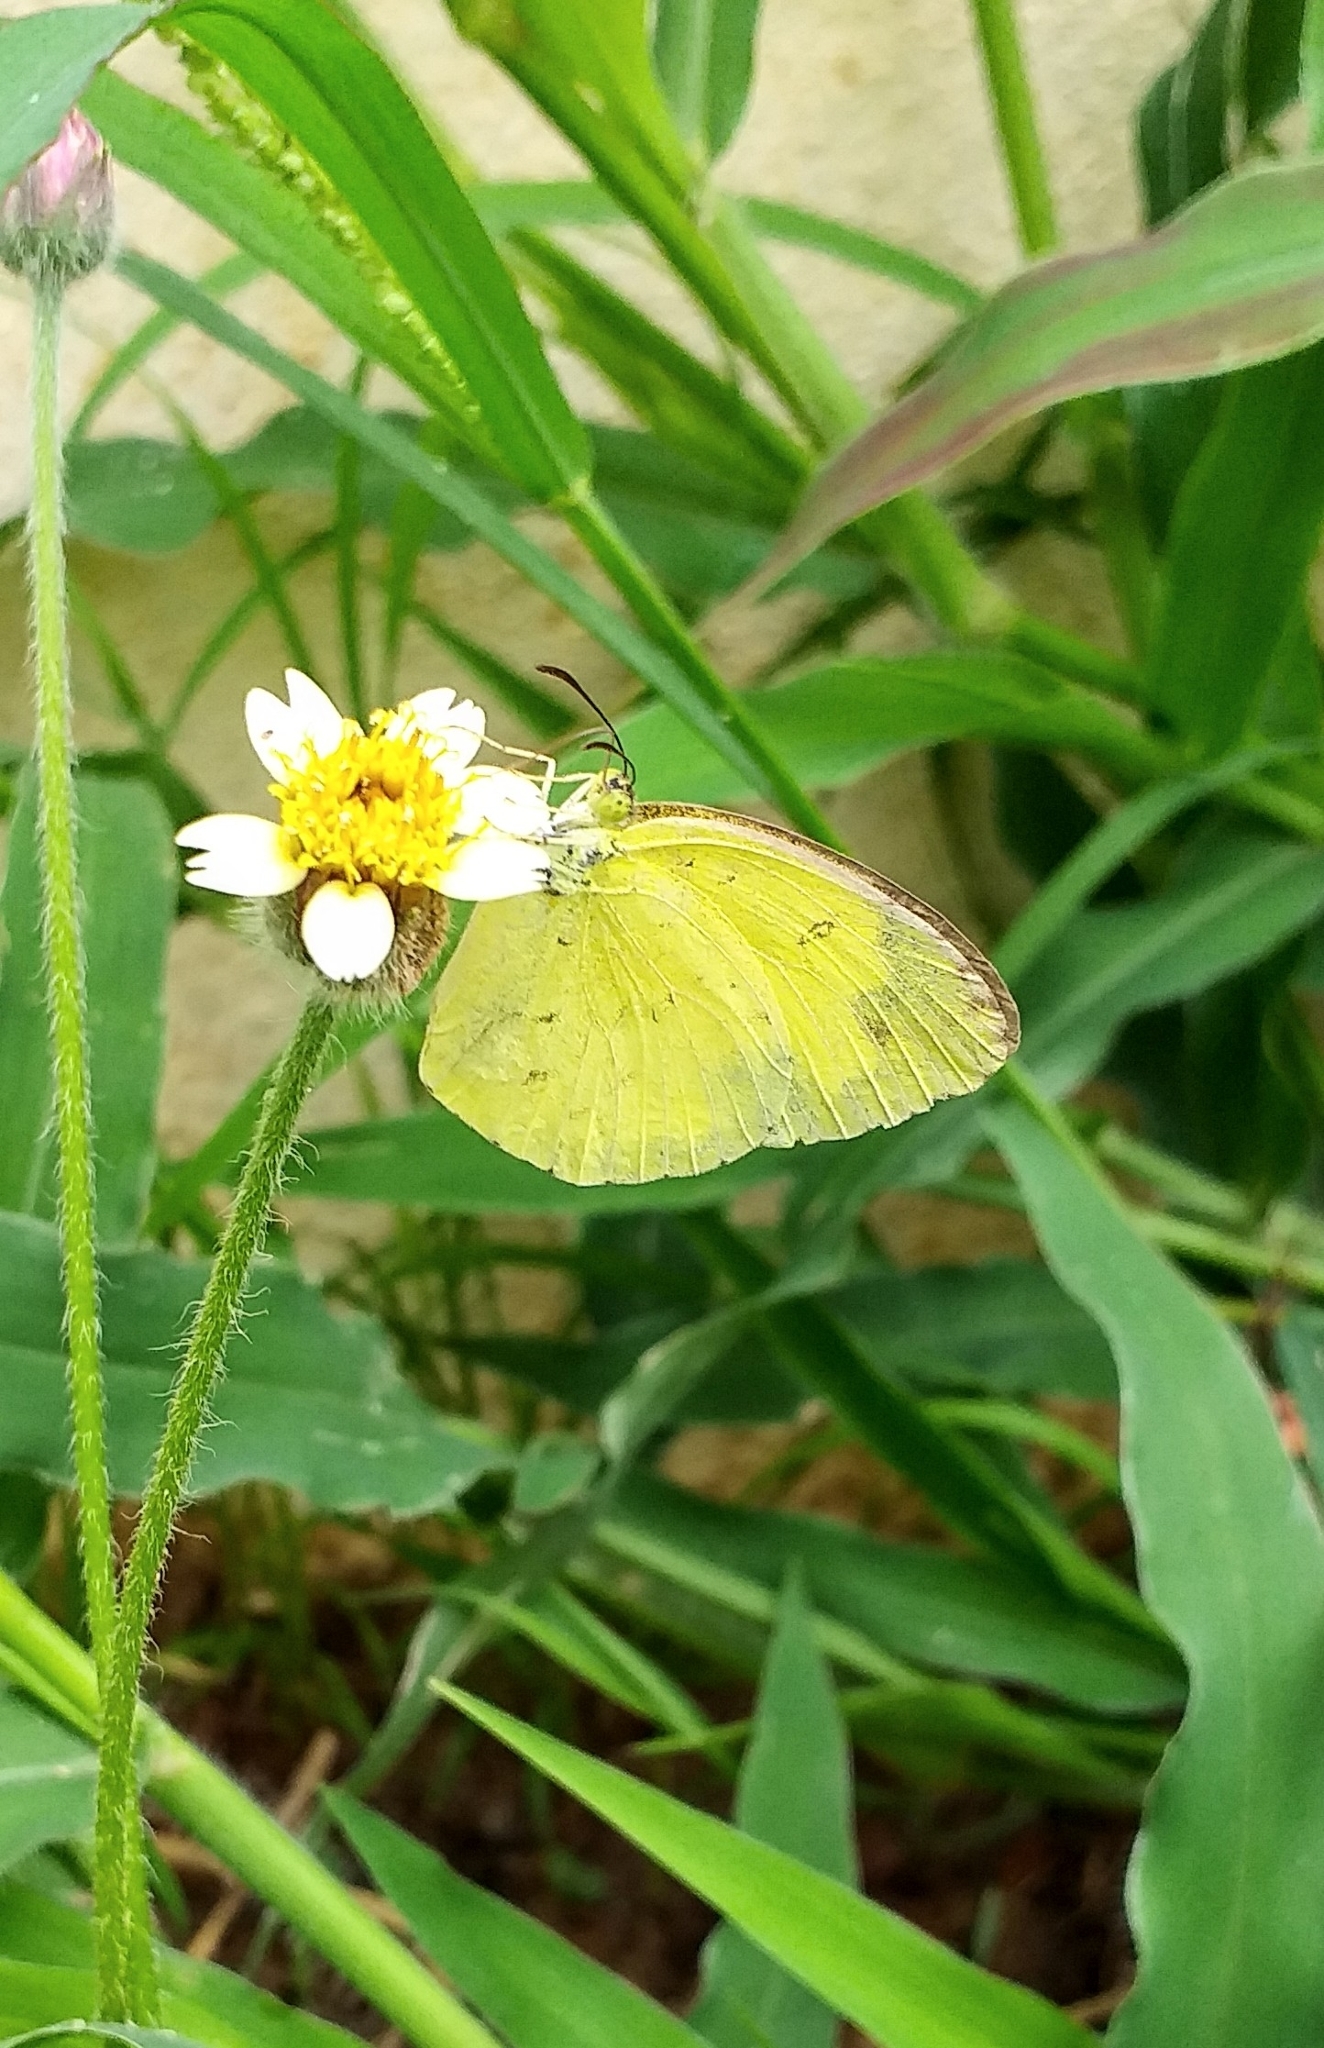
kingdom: Animalia
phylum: Arthropoda
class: Insecta
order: Lepidoptera
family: Pieridae
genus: Eurema
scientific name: Eurema hecabe
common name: Pale grass yellow
